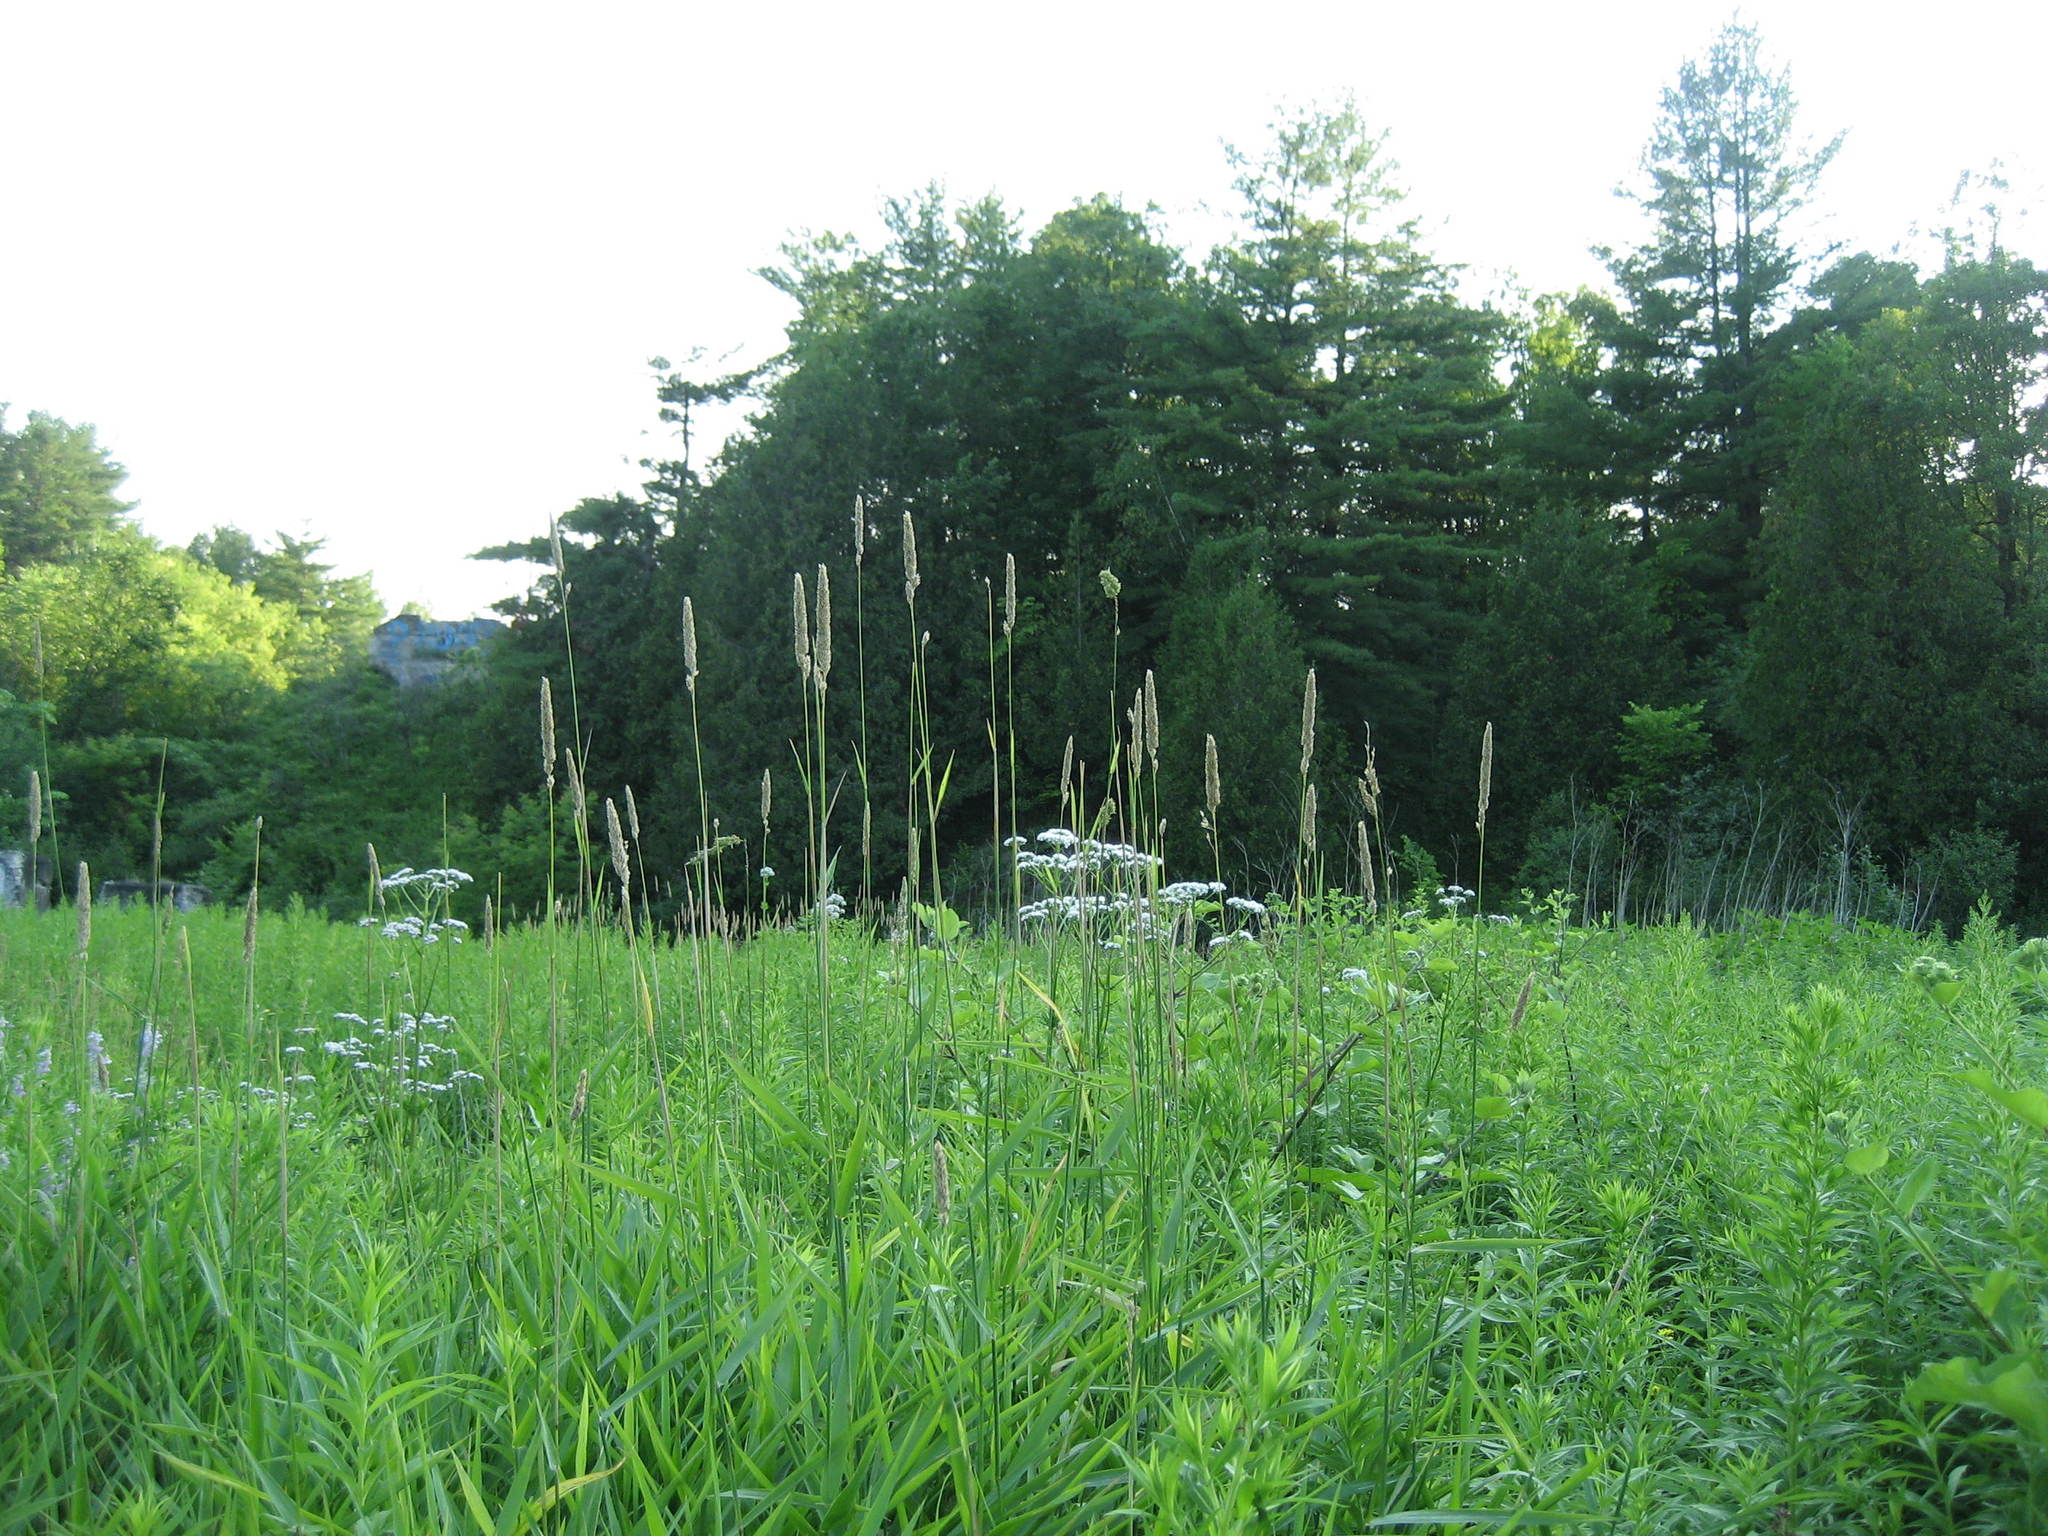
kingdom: Plantae
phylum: Tracheophyta
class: Liliopsida
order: Poales
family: Poaceae
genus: Phalaris
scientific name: Phalaris arundinacea
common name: Reed canary-grass
